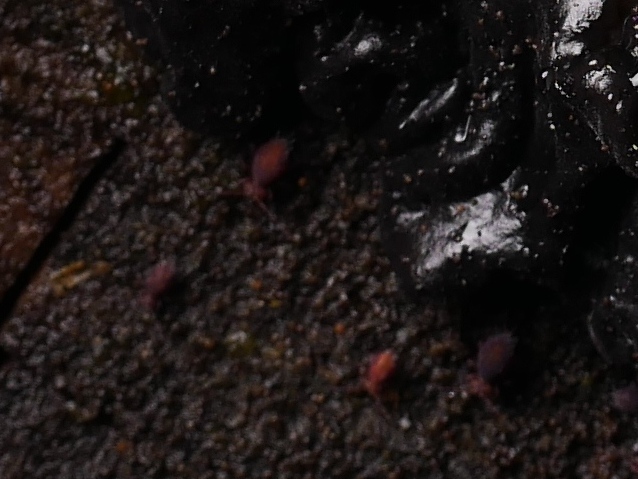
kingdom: Animalia
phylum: Arthropoda
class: Collembola
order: Symphypleona
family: Dicyrtomidae
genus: Dicyrtoma
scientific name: Dicyrtoma fusca
